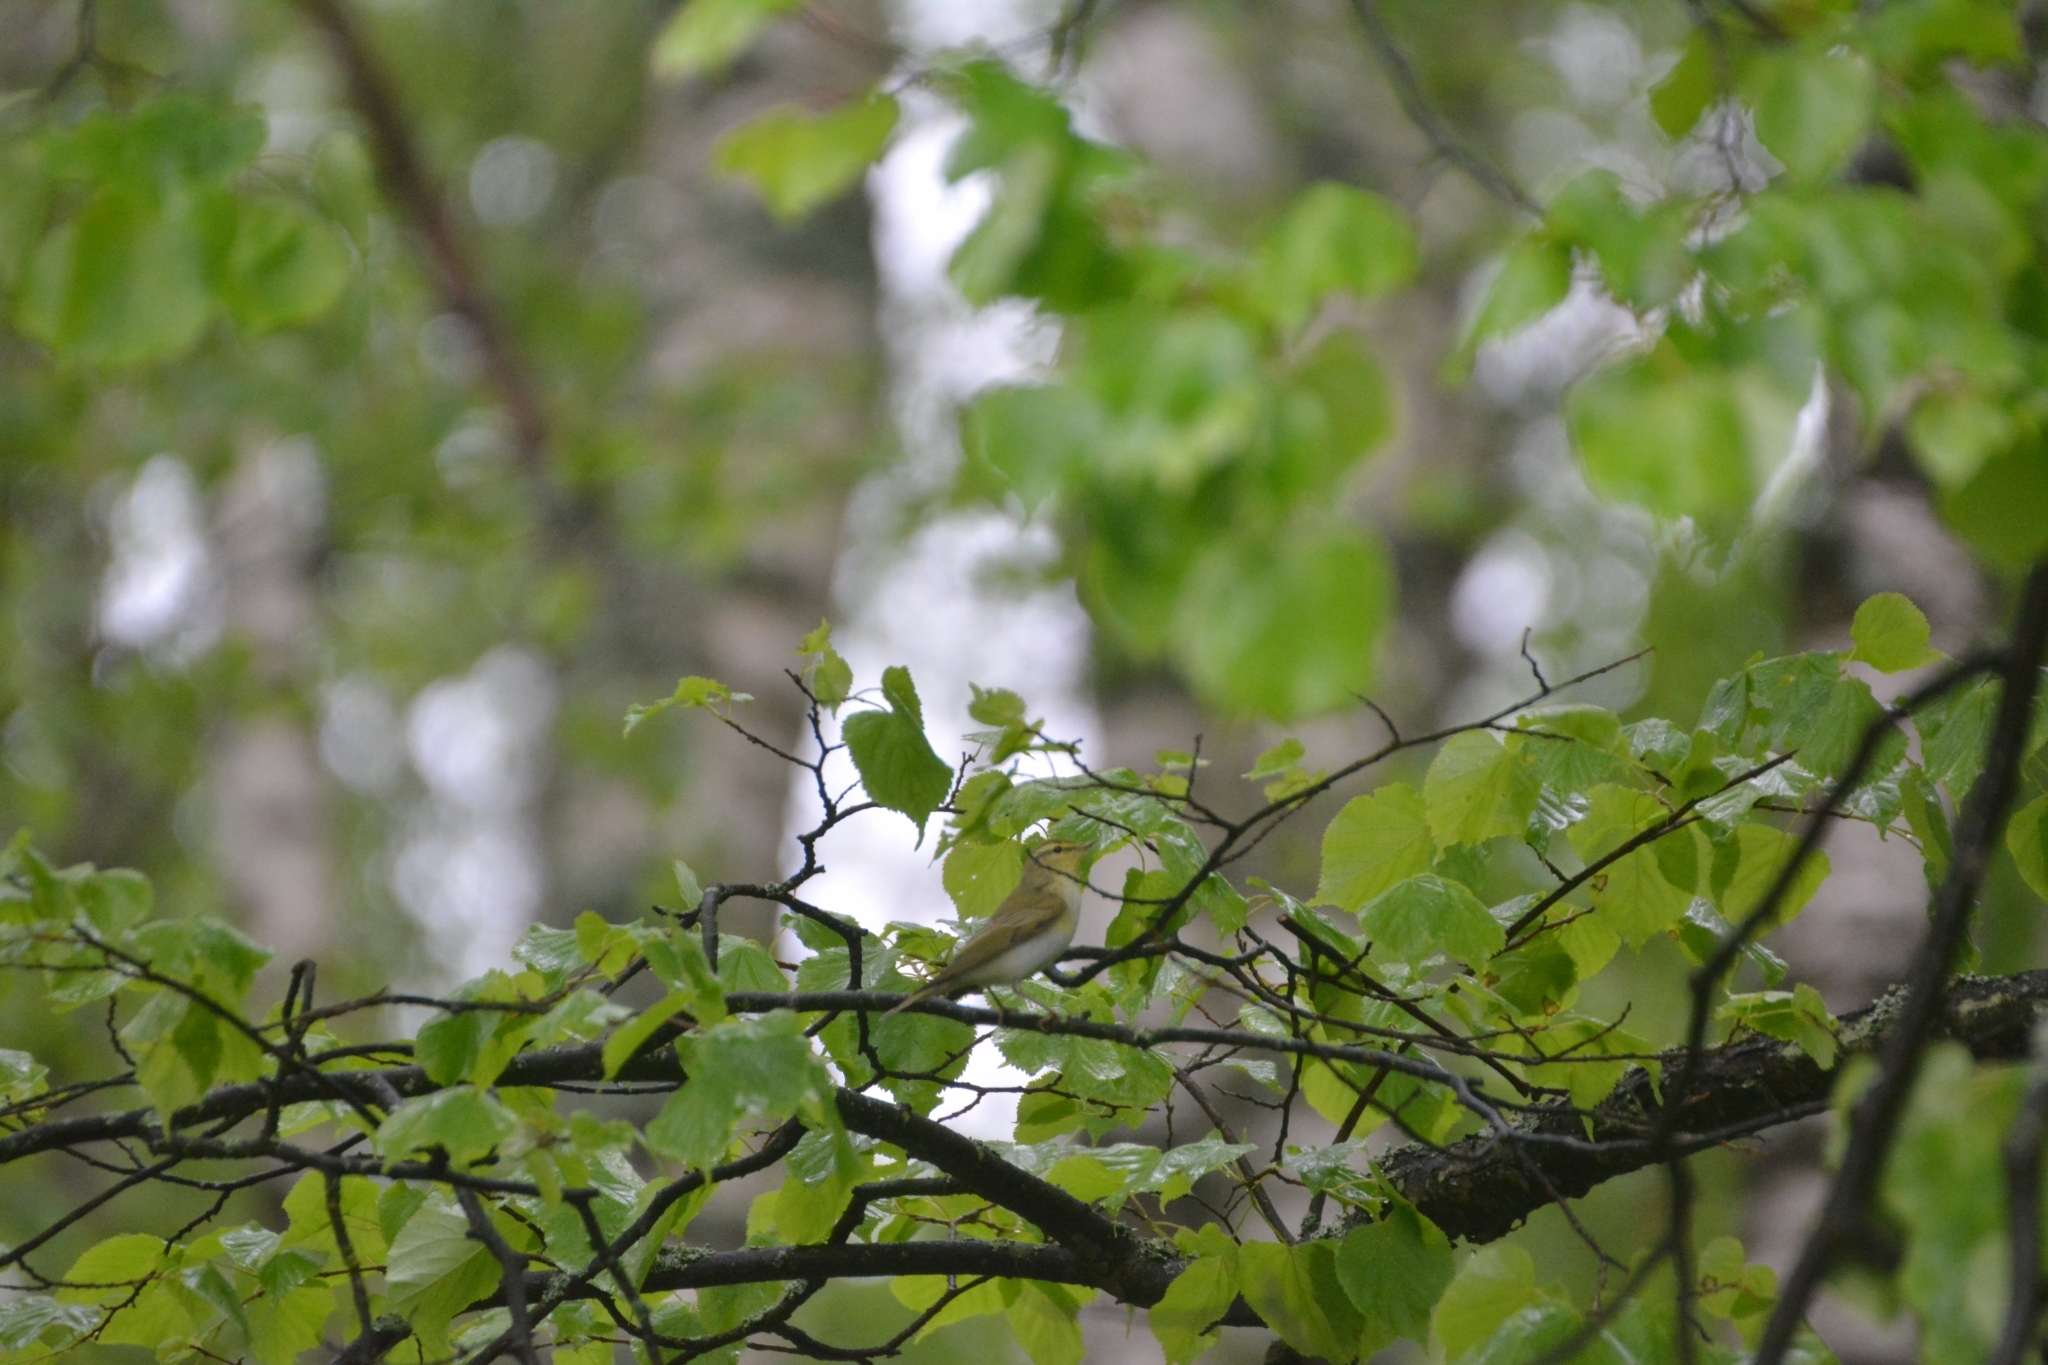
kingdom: Animalia
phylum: Chordata
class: Aves
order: Passeriformes
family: Phylloscopidae
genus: Phylloscopus
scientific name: Phylloscopus sibillatrix
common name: Wood warbler
